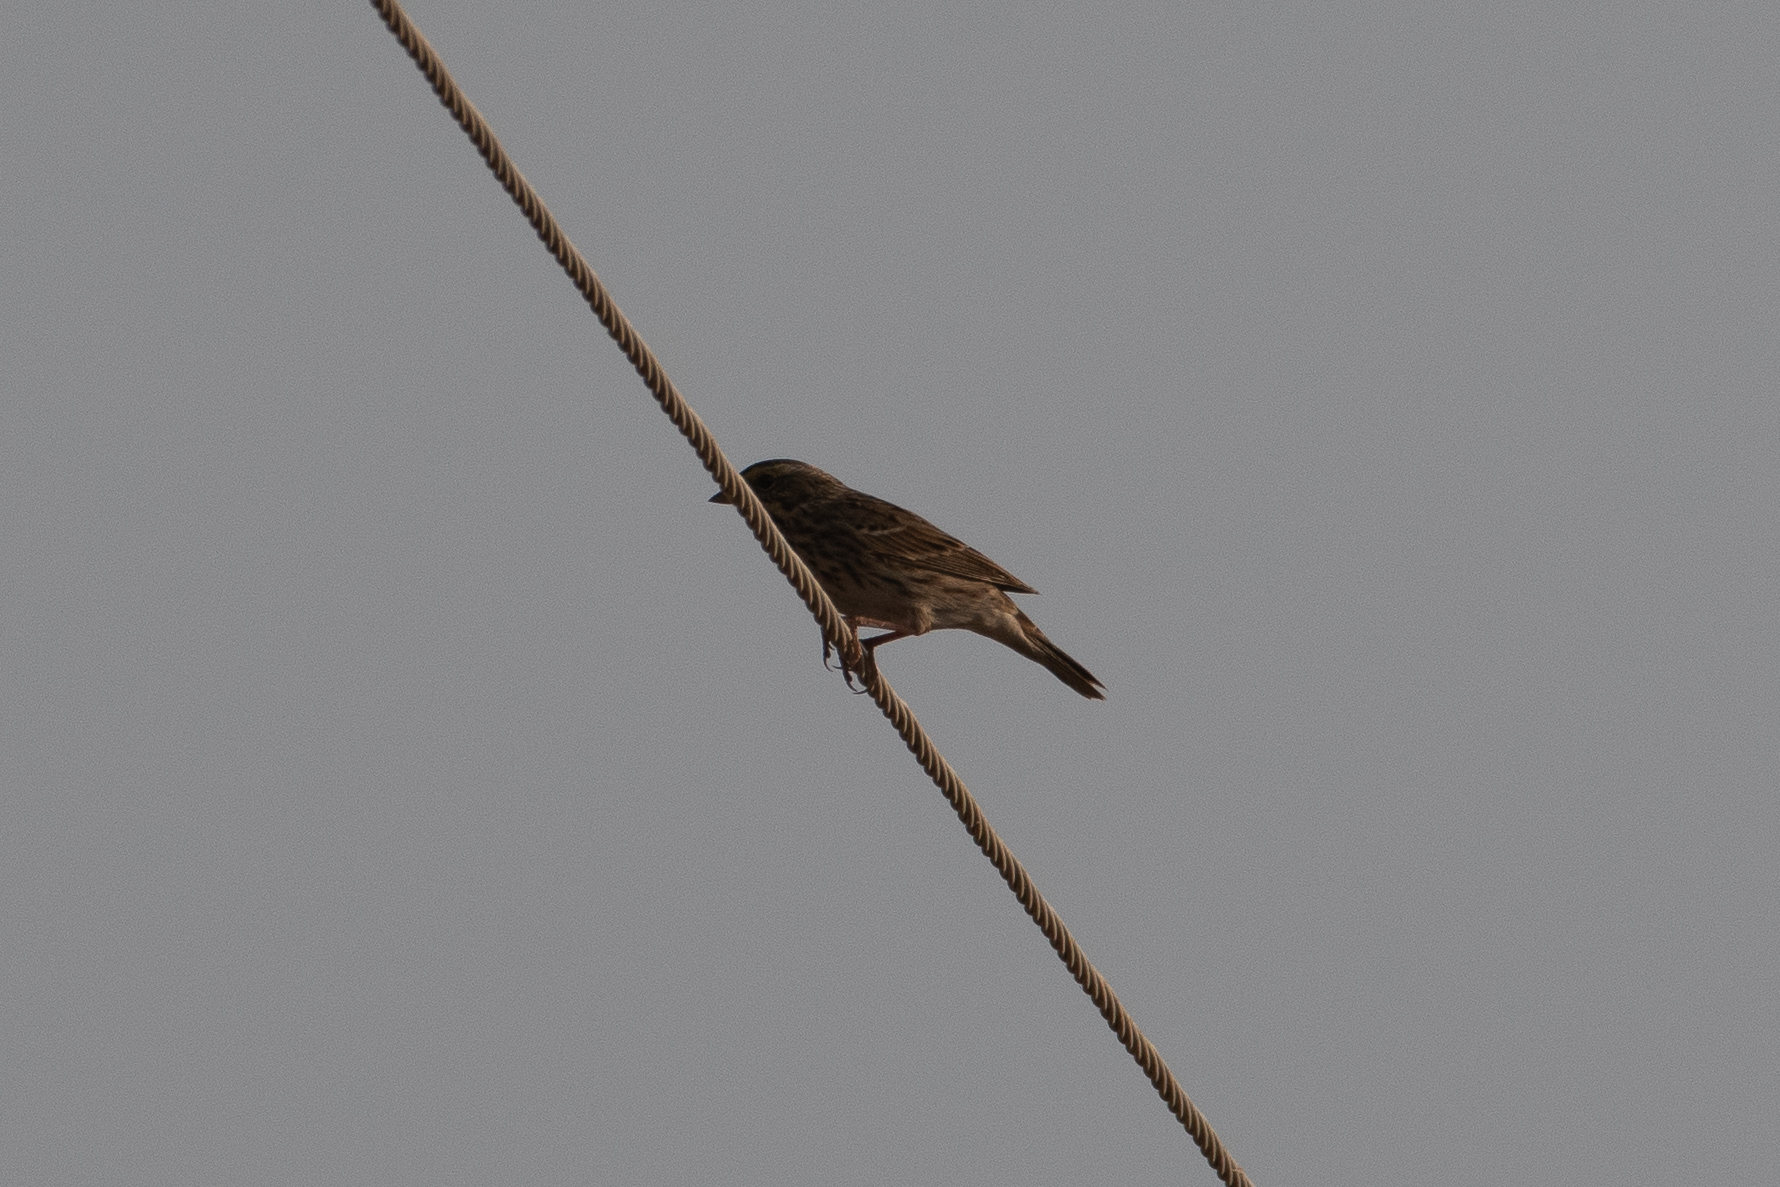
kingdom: Animalia
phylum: Chordata
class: Aves
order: Passeriformes
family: Passerellidae
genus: Passerculus
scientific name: Passerculus sandwichensis
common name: Savannah sparrow
